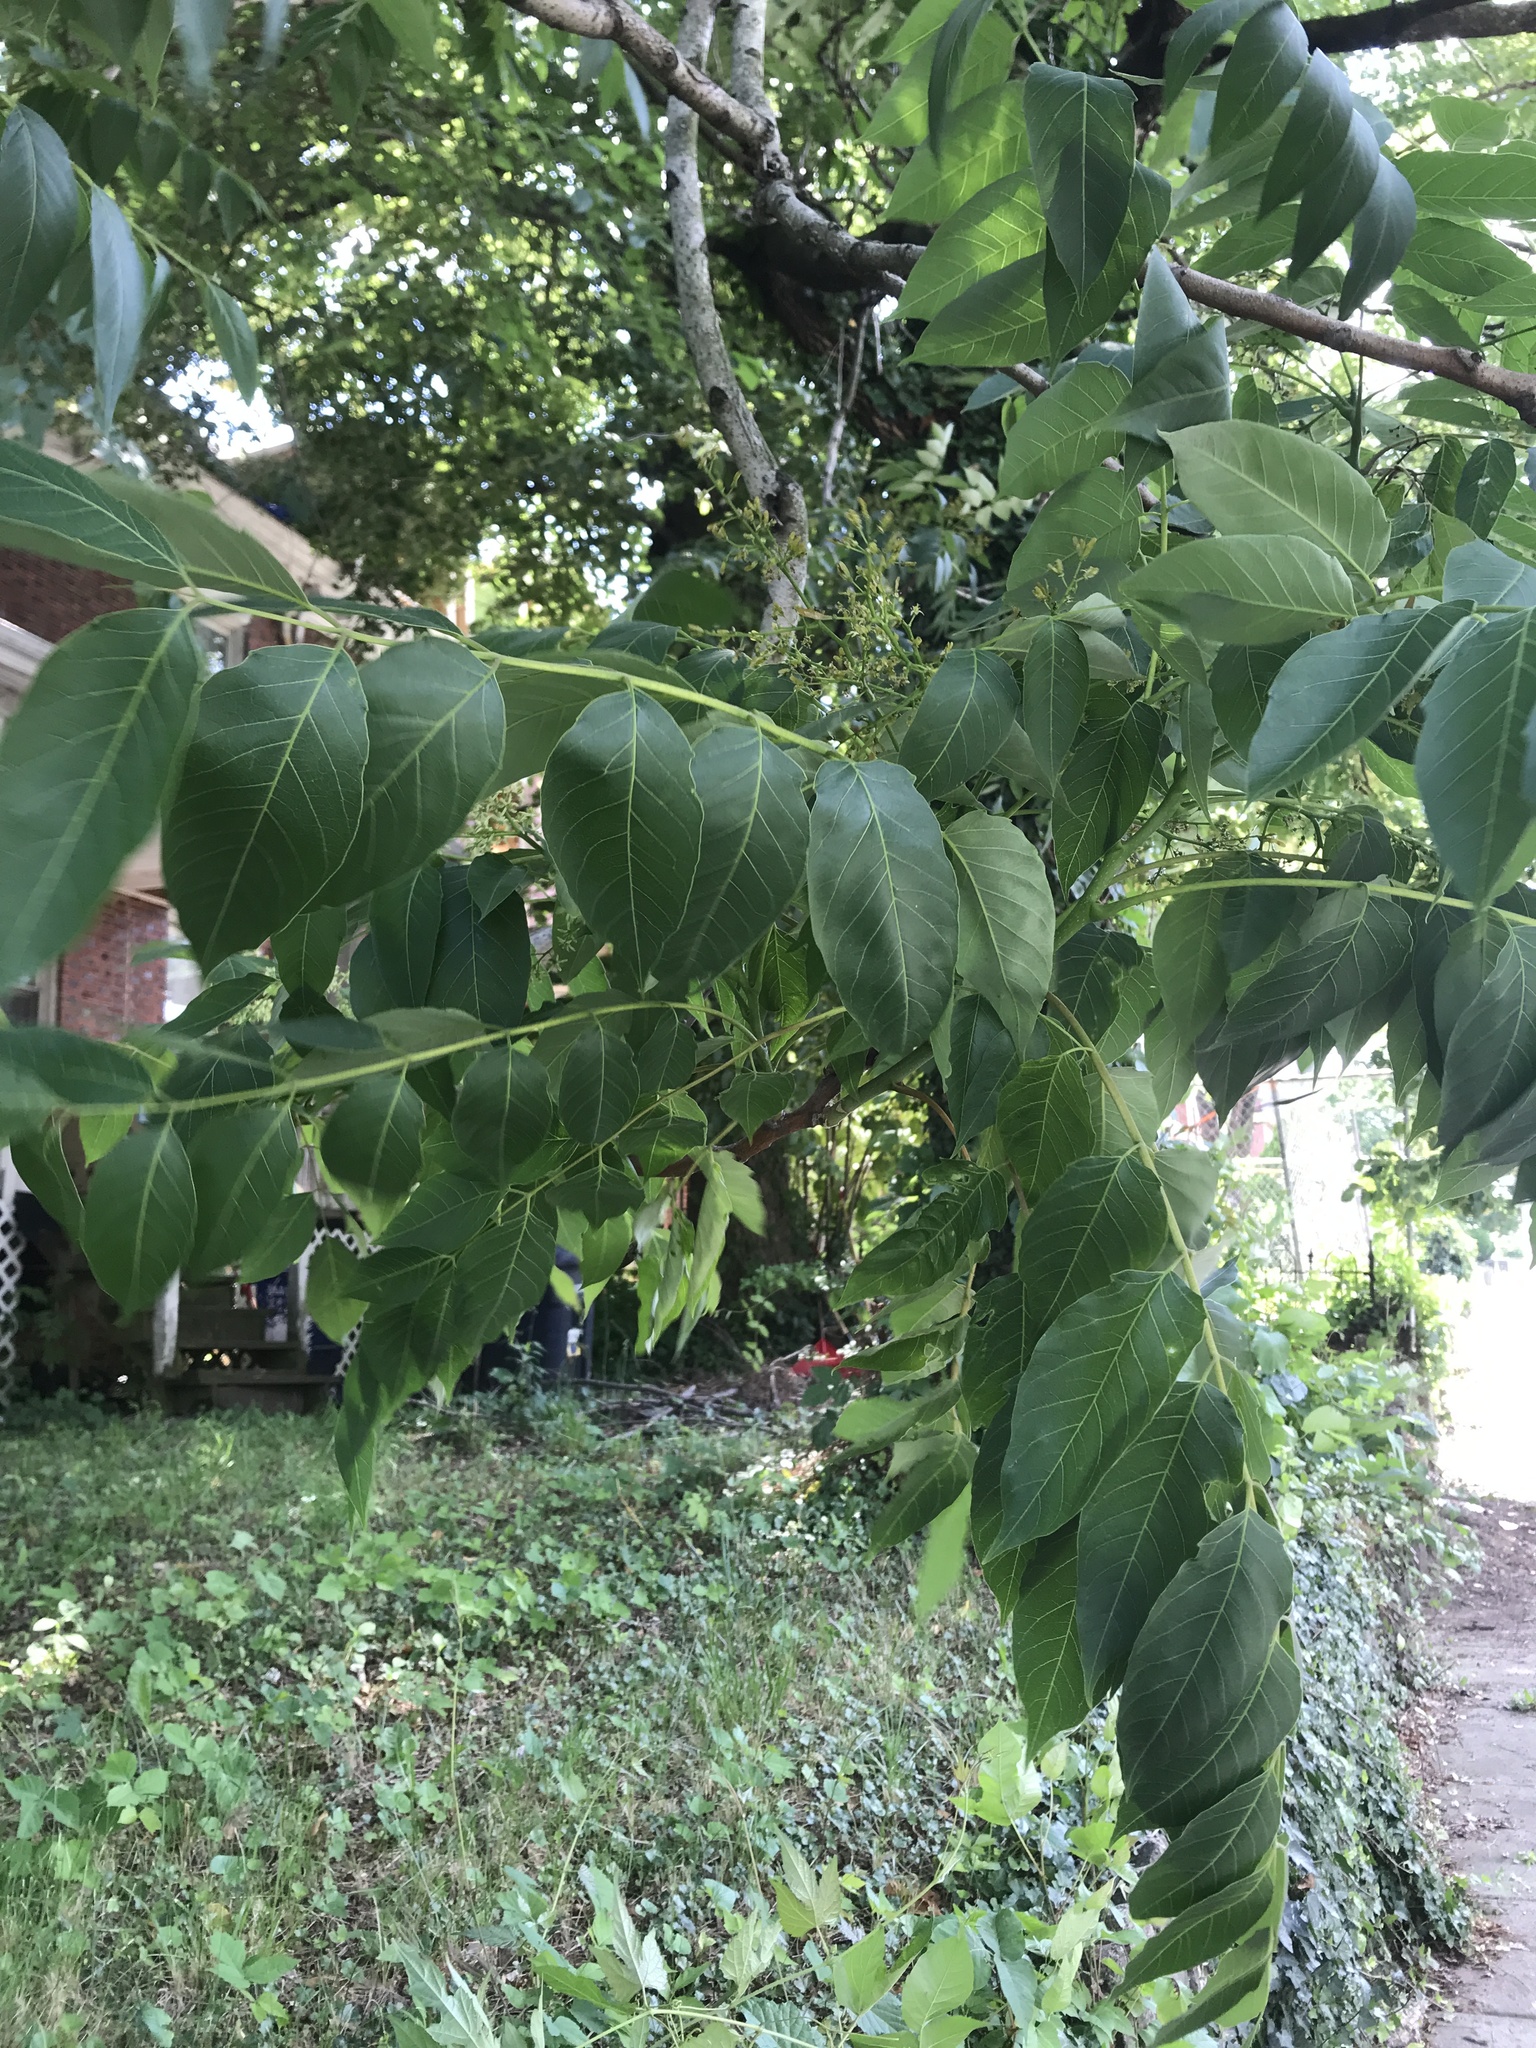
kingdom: Plantae
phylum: Tracheophyta
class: Magnoliopsida
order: Fagales
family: Juglandaceae
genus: Juglans
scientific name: Juglans nigra
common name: Black walnut
